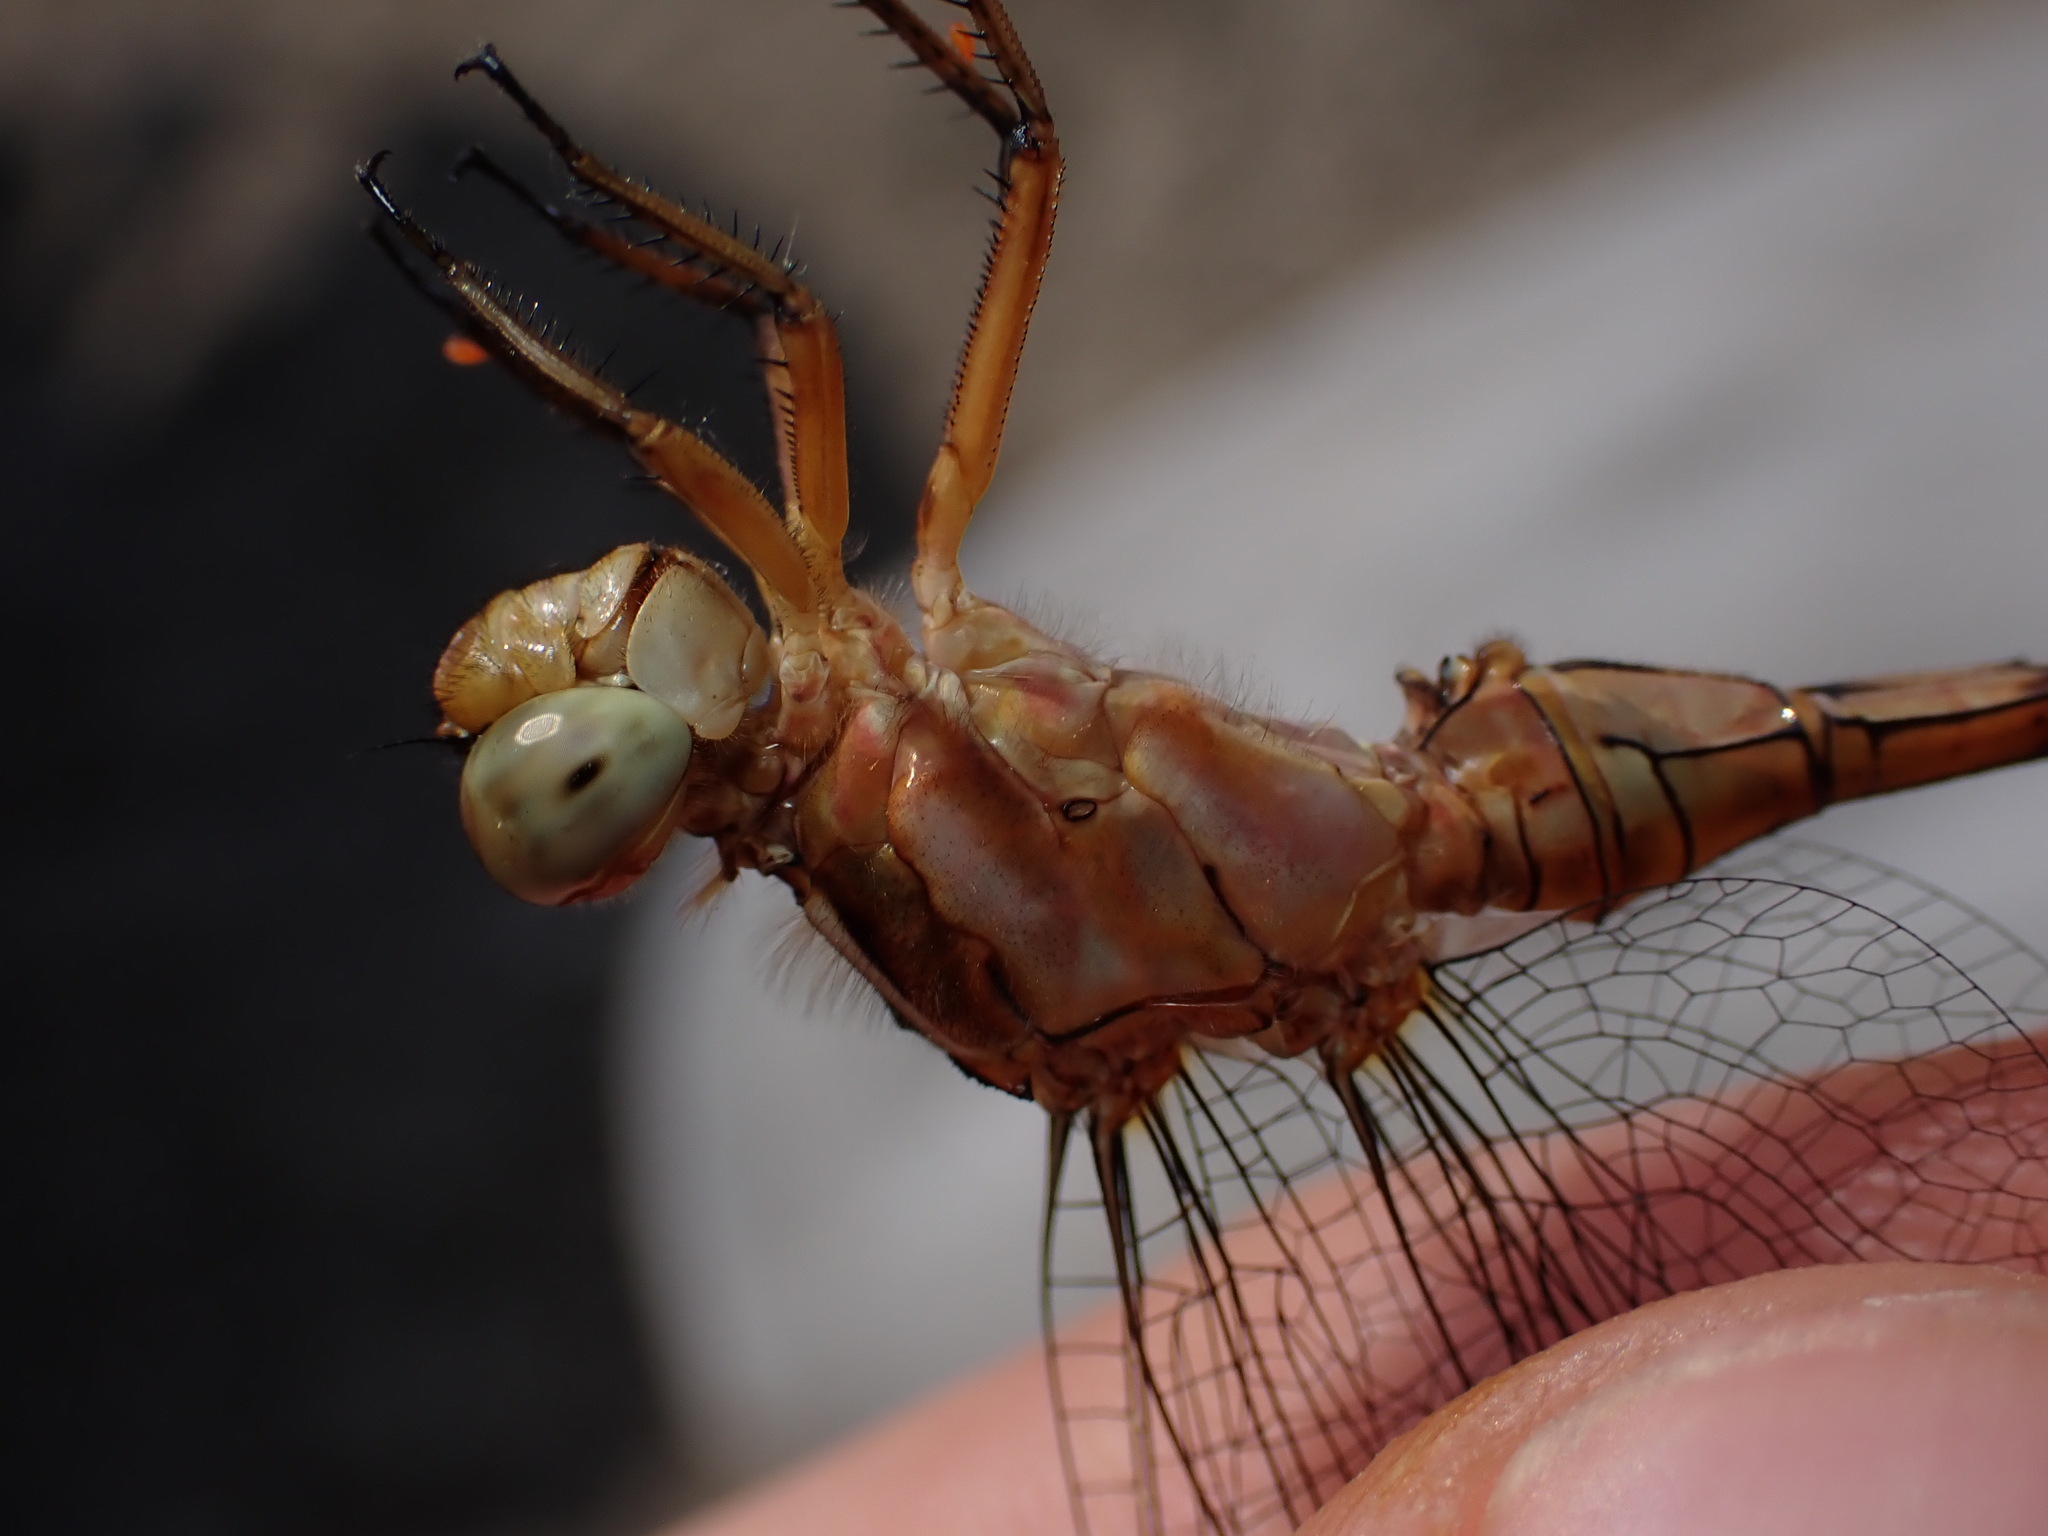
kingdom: Animalia
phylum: Arthropoda
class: Insecta
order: Odonata
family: Libellulidae
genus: Orthetrum
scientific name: Orthetrum coerulescens
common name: Keeled skimmer
